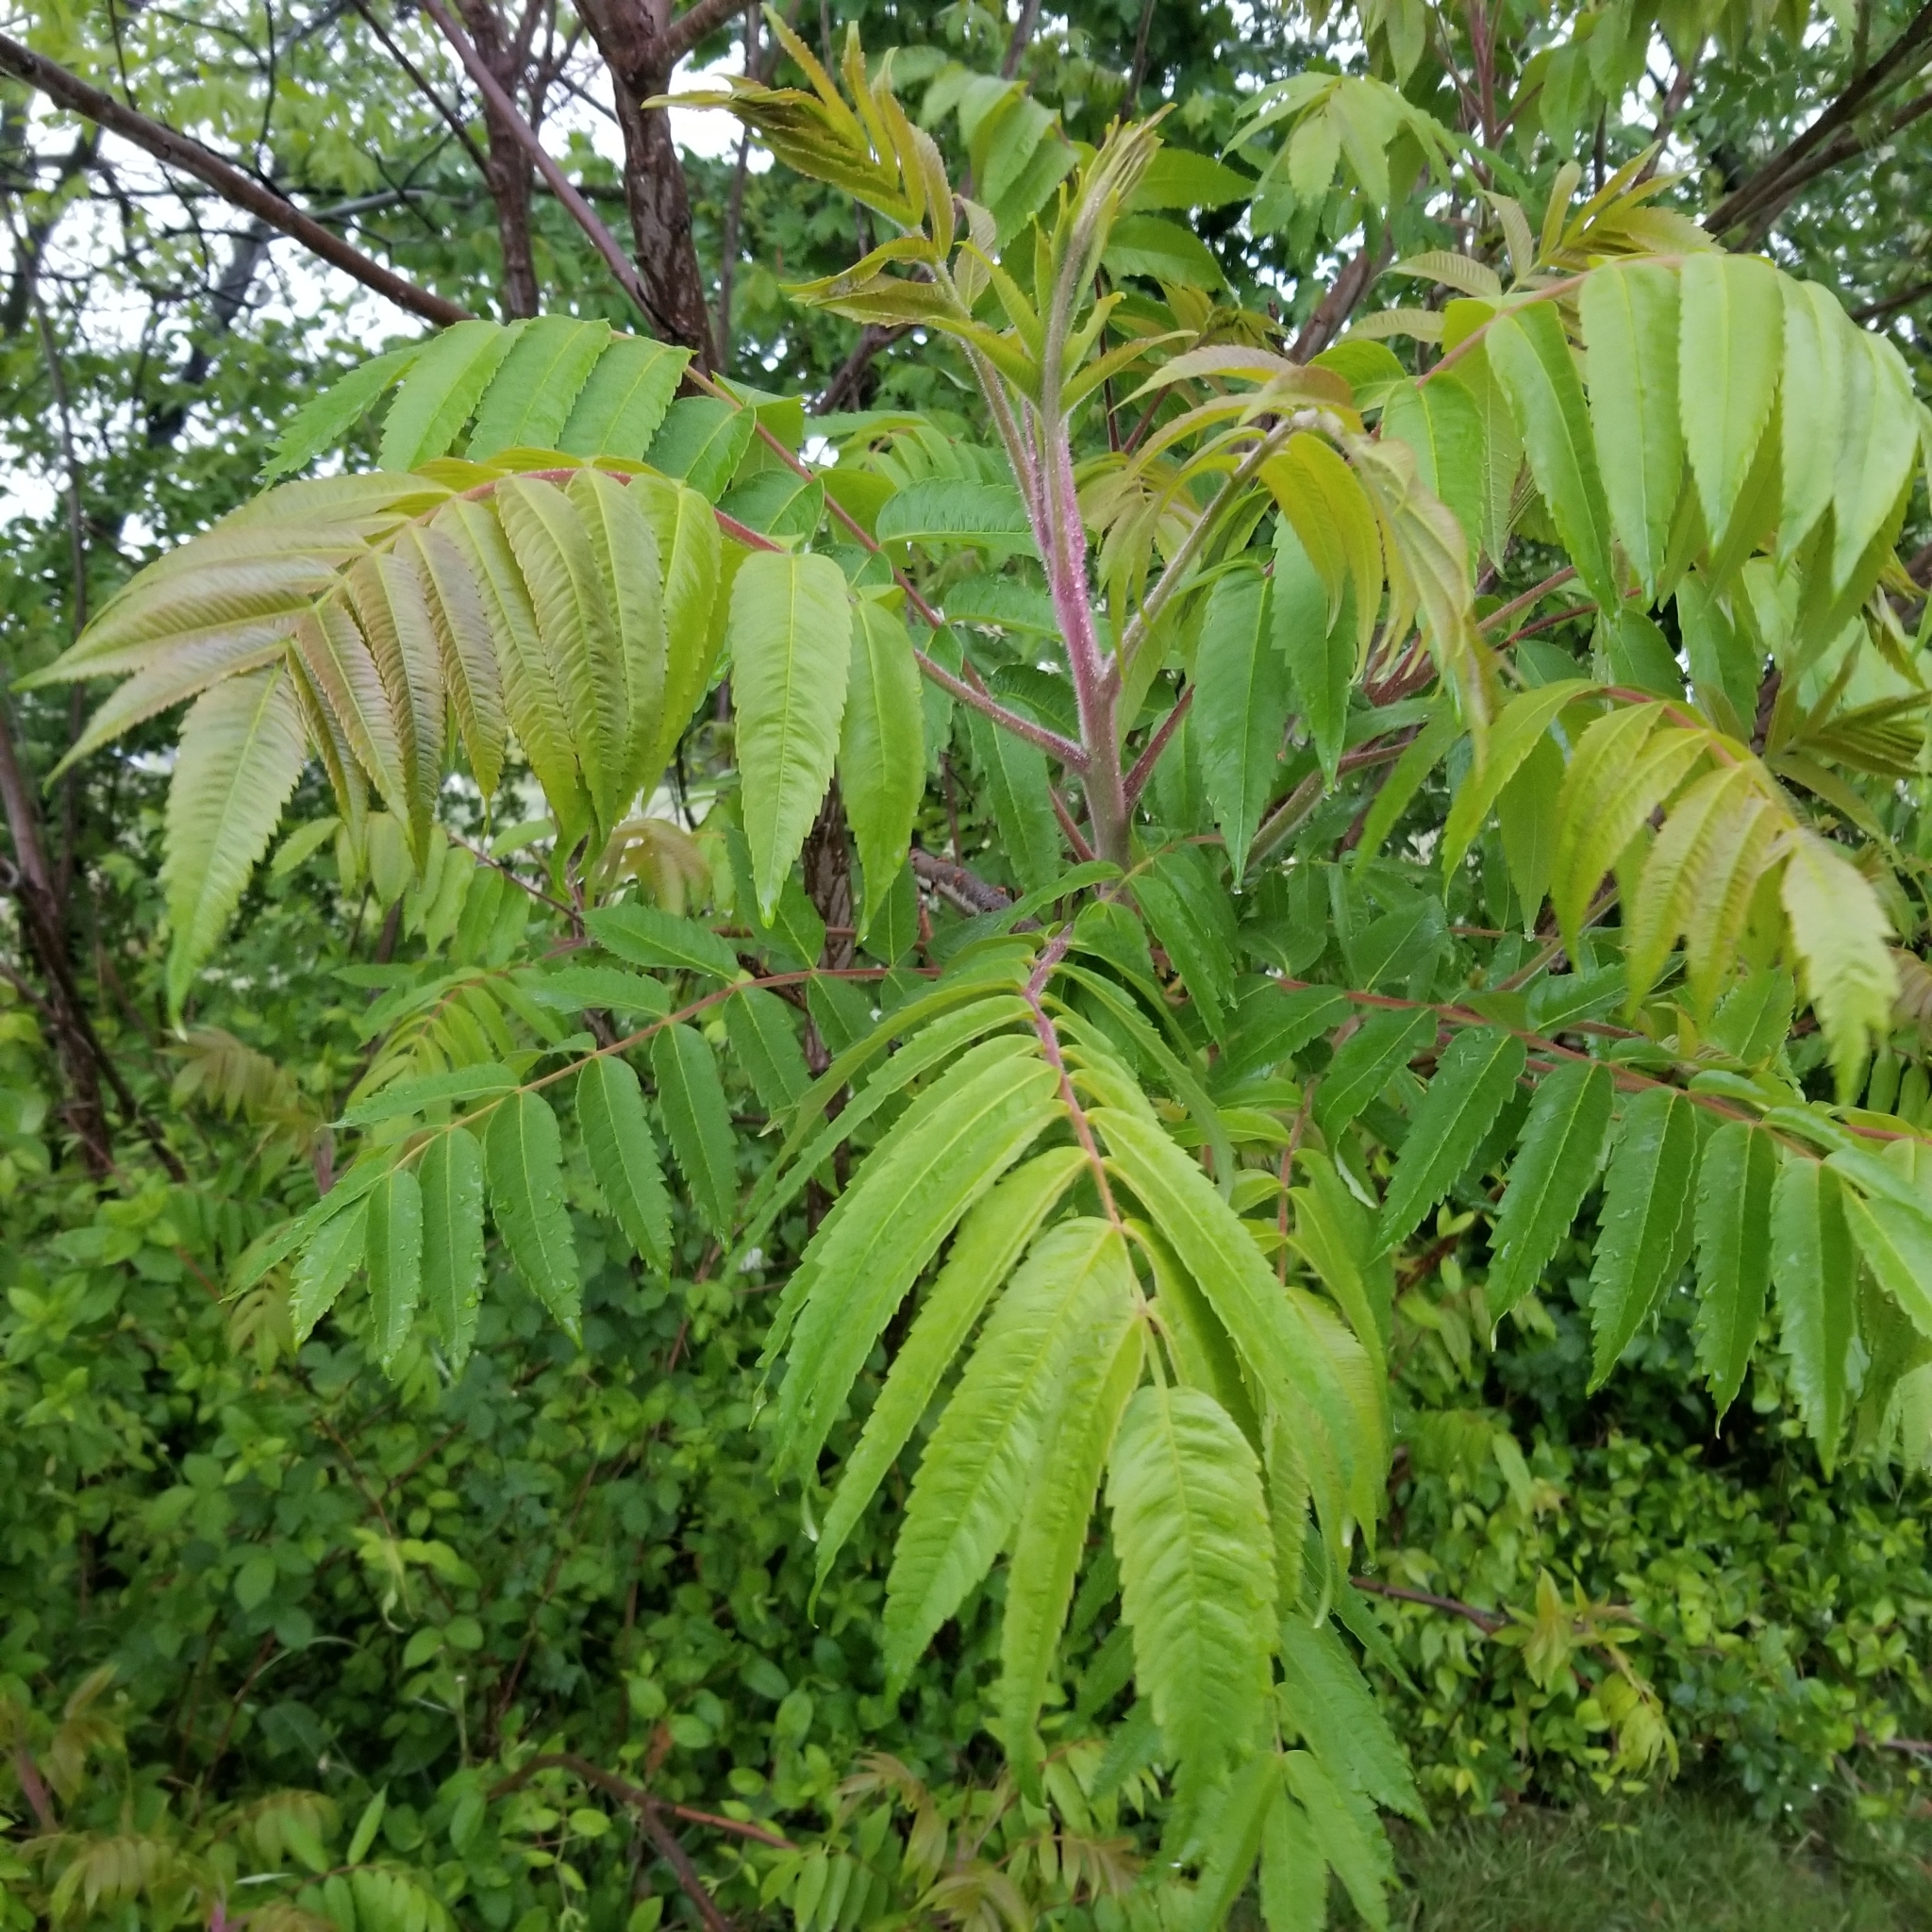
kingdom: Plantae
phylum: Tracheophyta
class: Magnoliopsida
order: Sapindales
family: Anacardiaceae
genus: Rhus
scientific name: Rhus typhina
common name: Staghorn sumac
